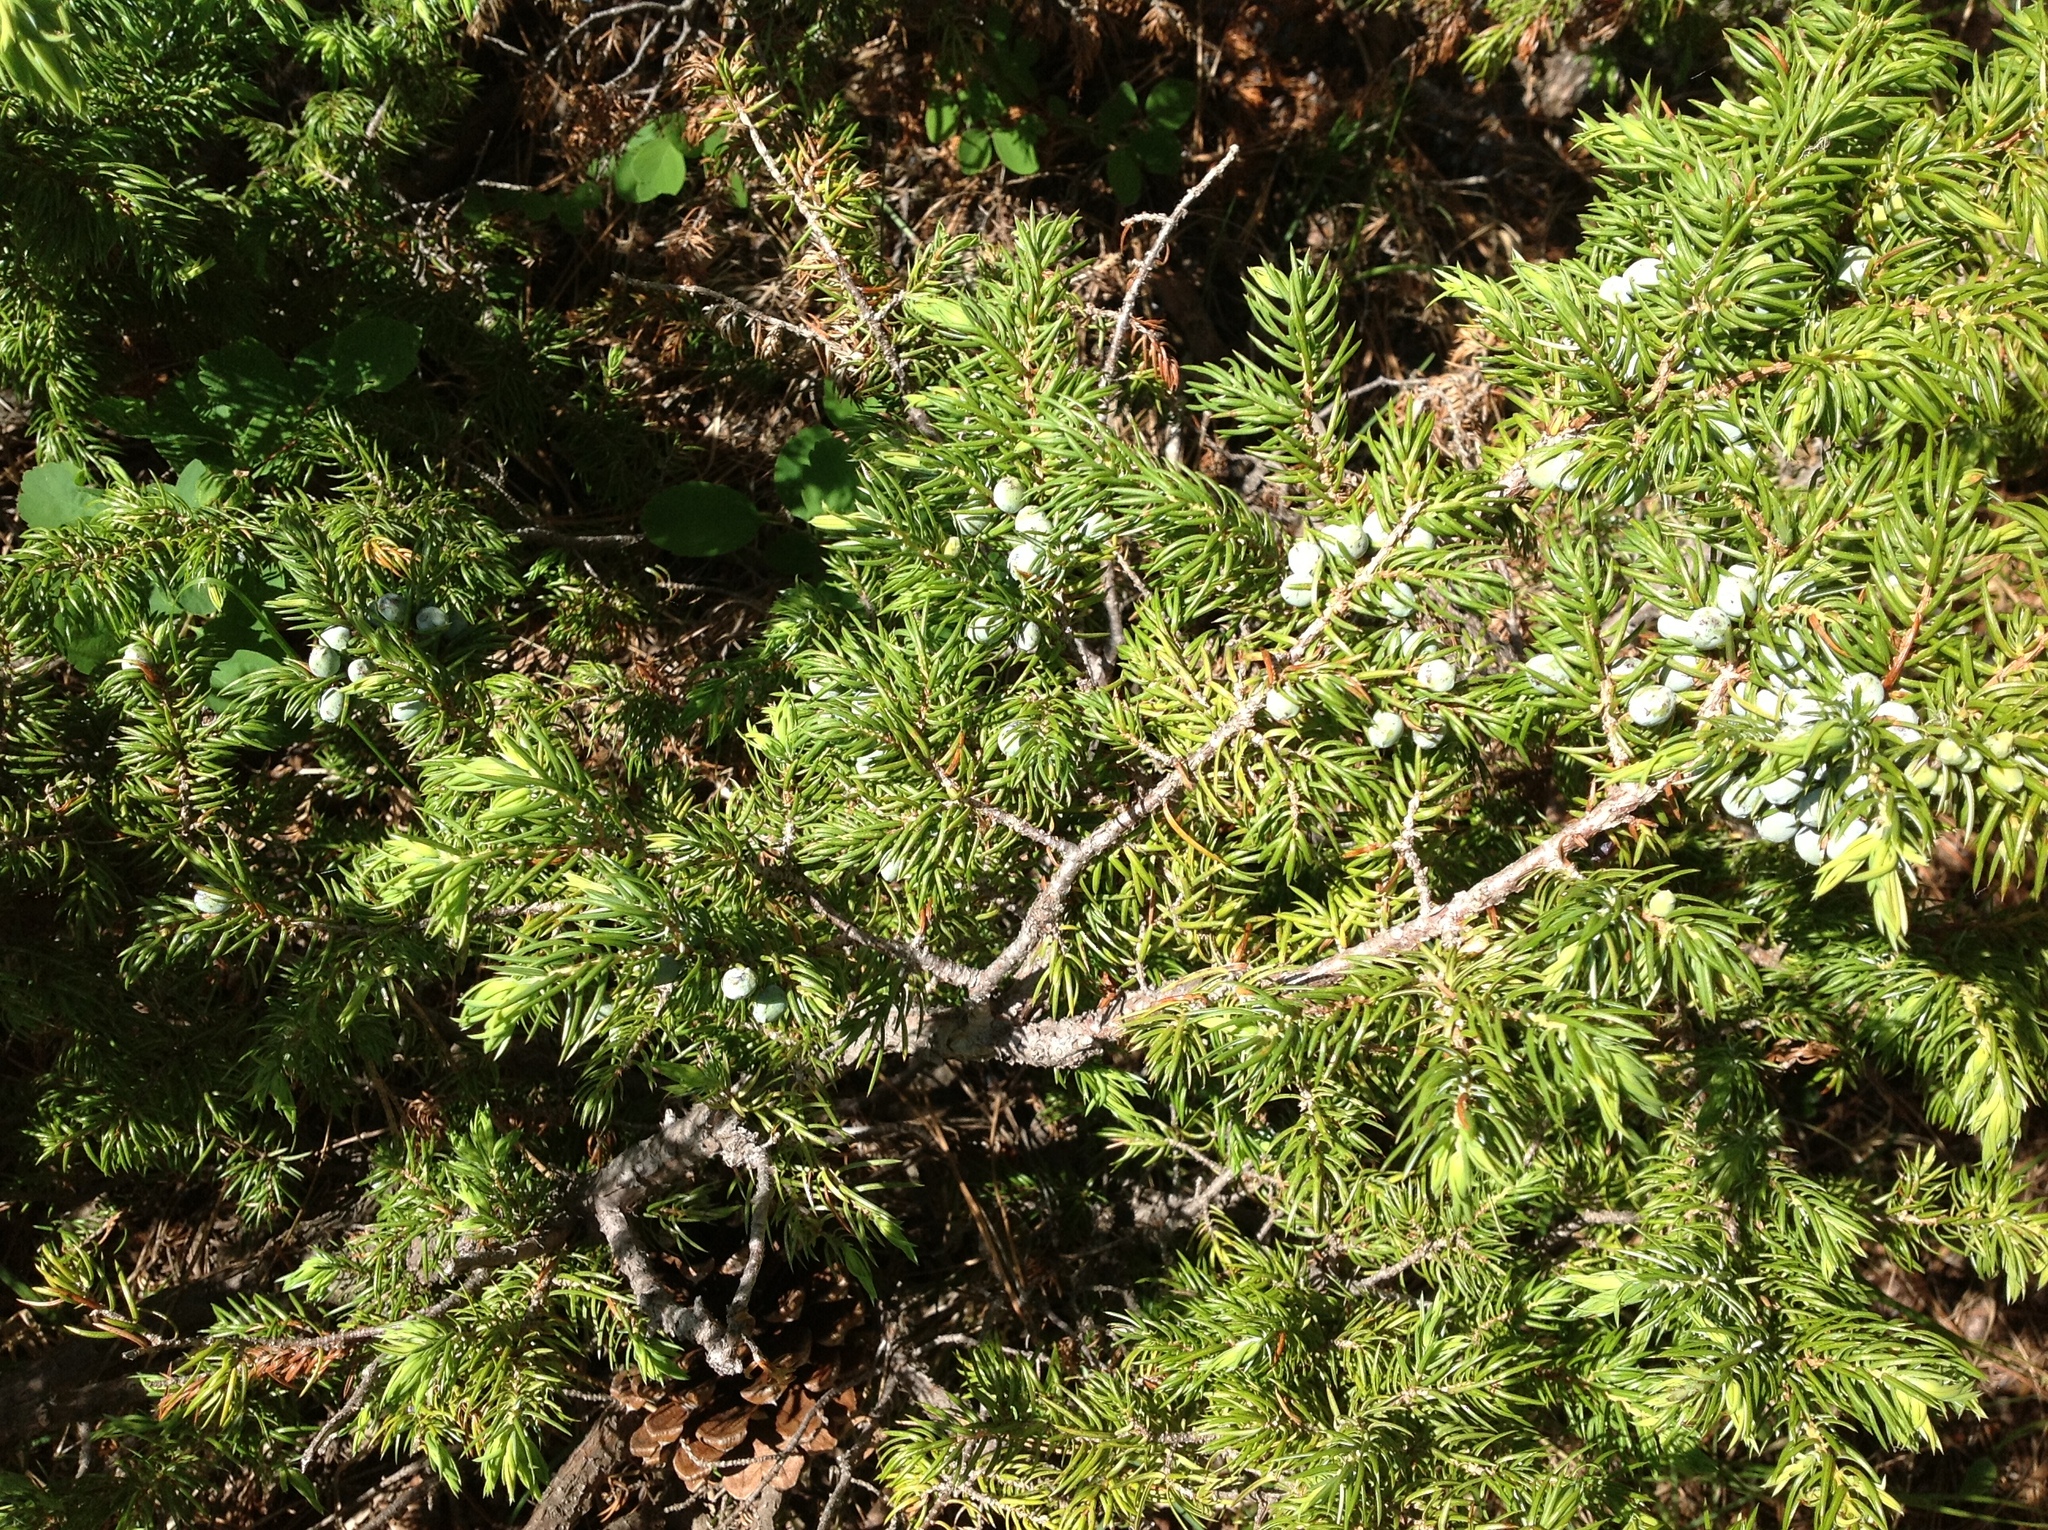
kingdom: Plantae
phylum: Tracheophyta
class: Pinopsida
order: Pinales
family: Cupressaceae
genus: Juniperus
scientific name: Juniperus communis
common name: Common juniper
